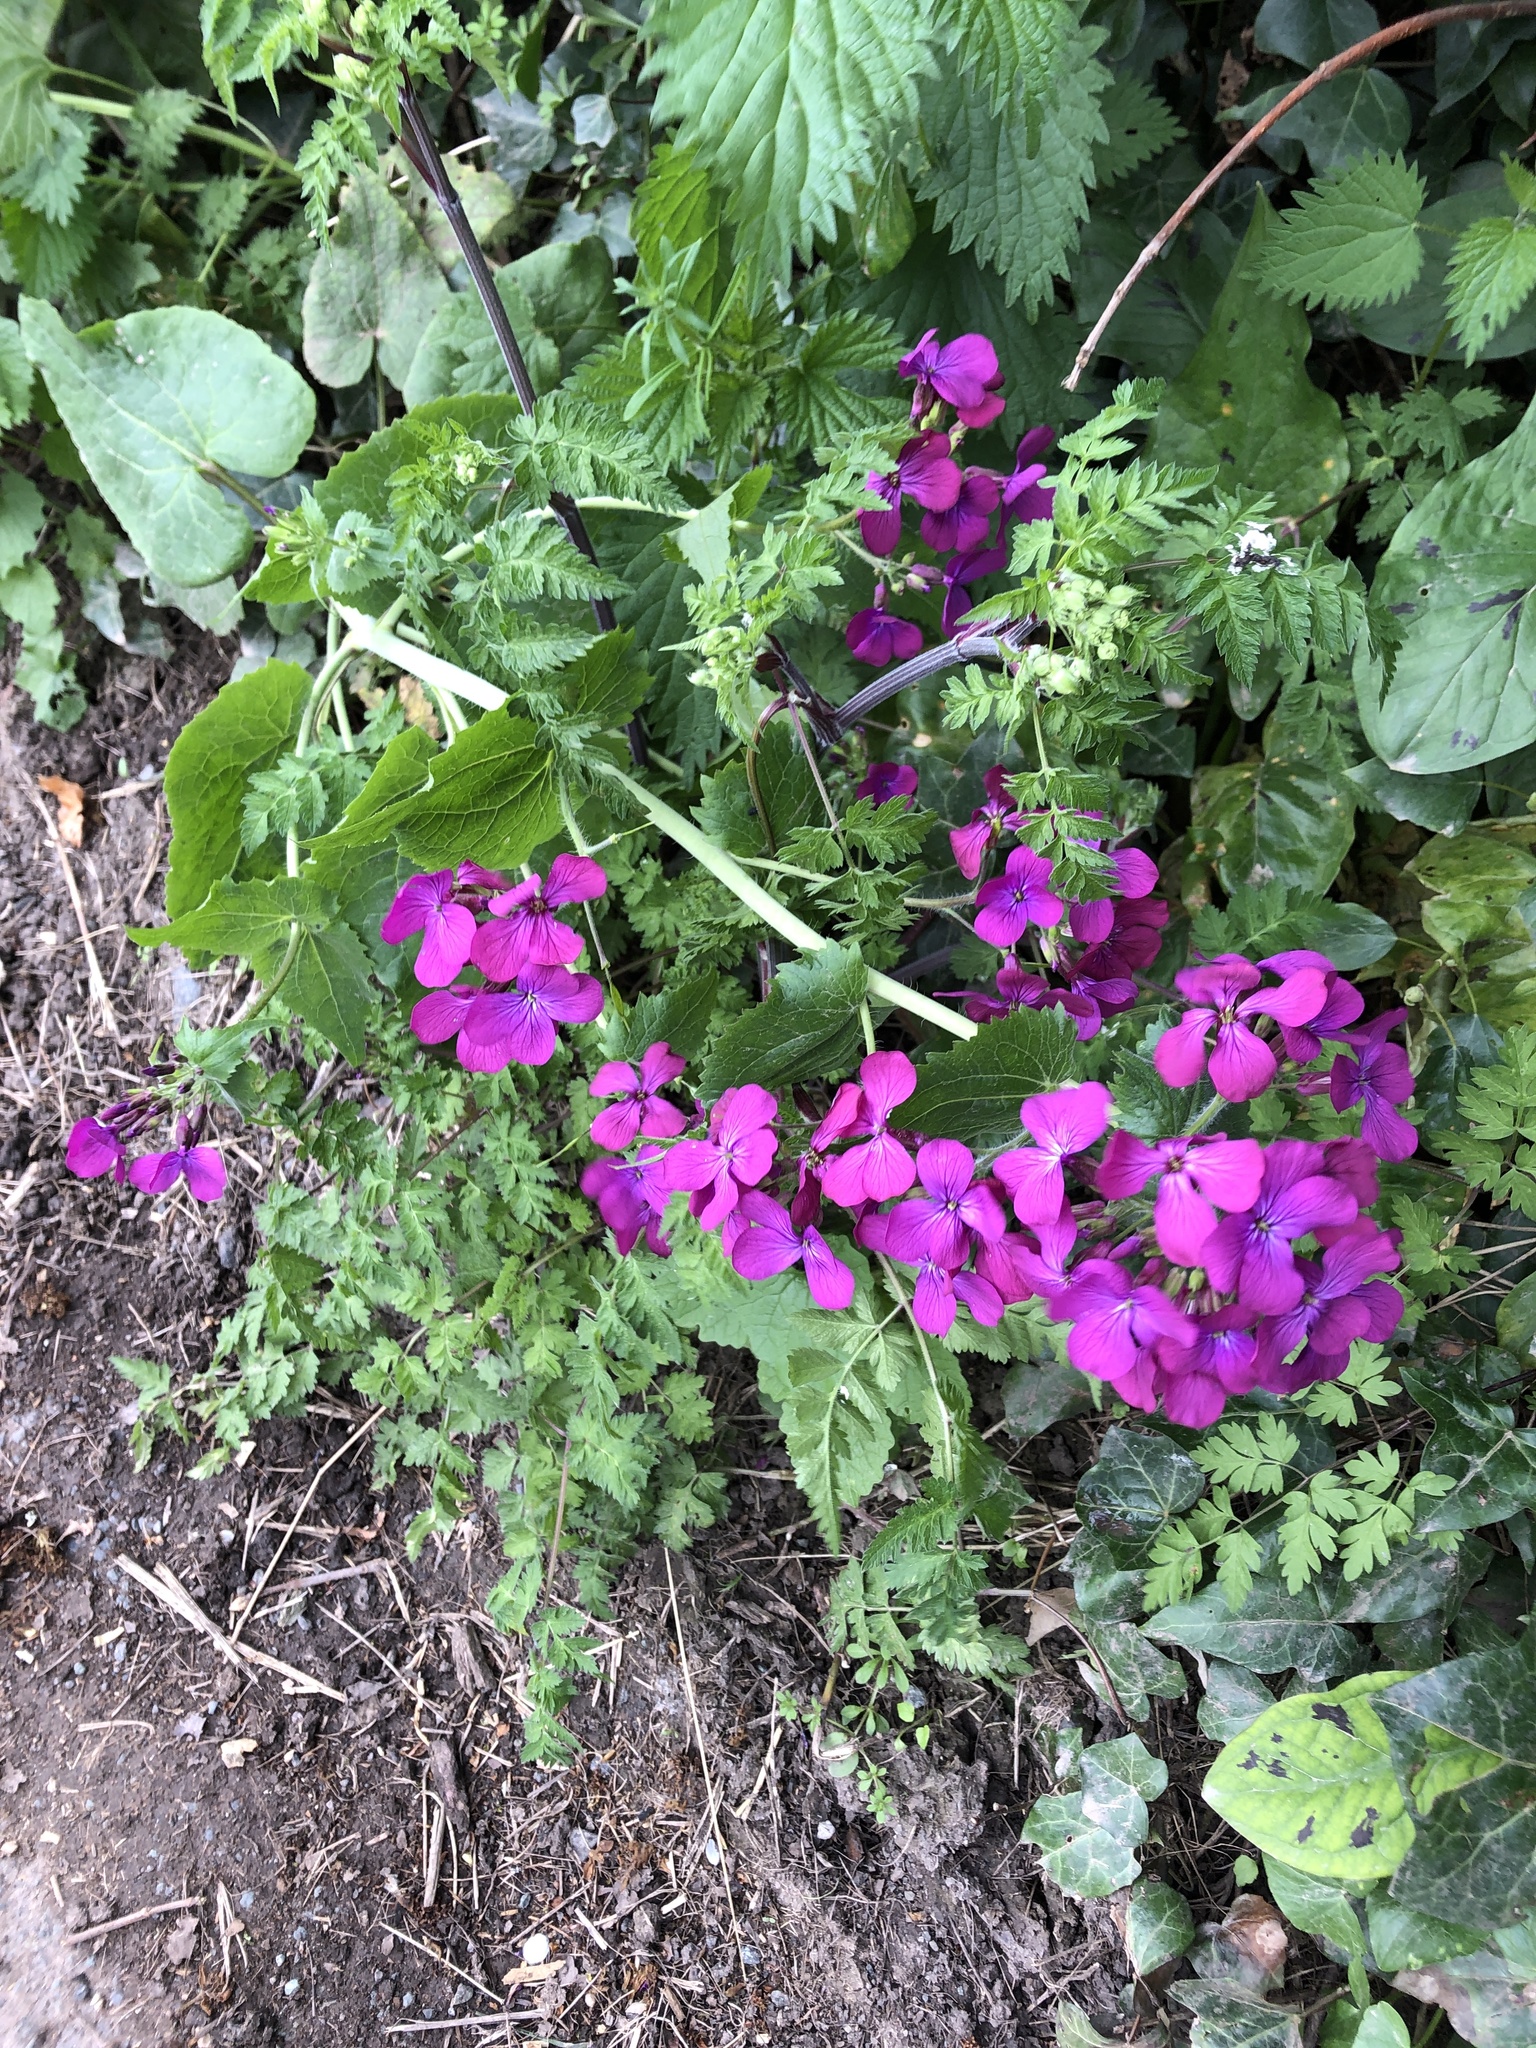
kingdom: Plantae
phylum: Tracheophyta
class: Magnoliopsida
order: Brassicales
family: Brassicaceae
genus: Lunaria
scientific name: Lunaria annua
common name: Honesty
